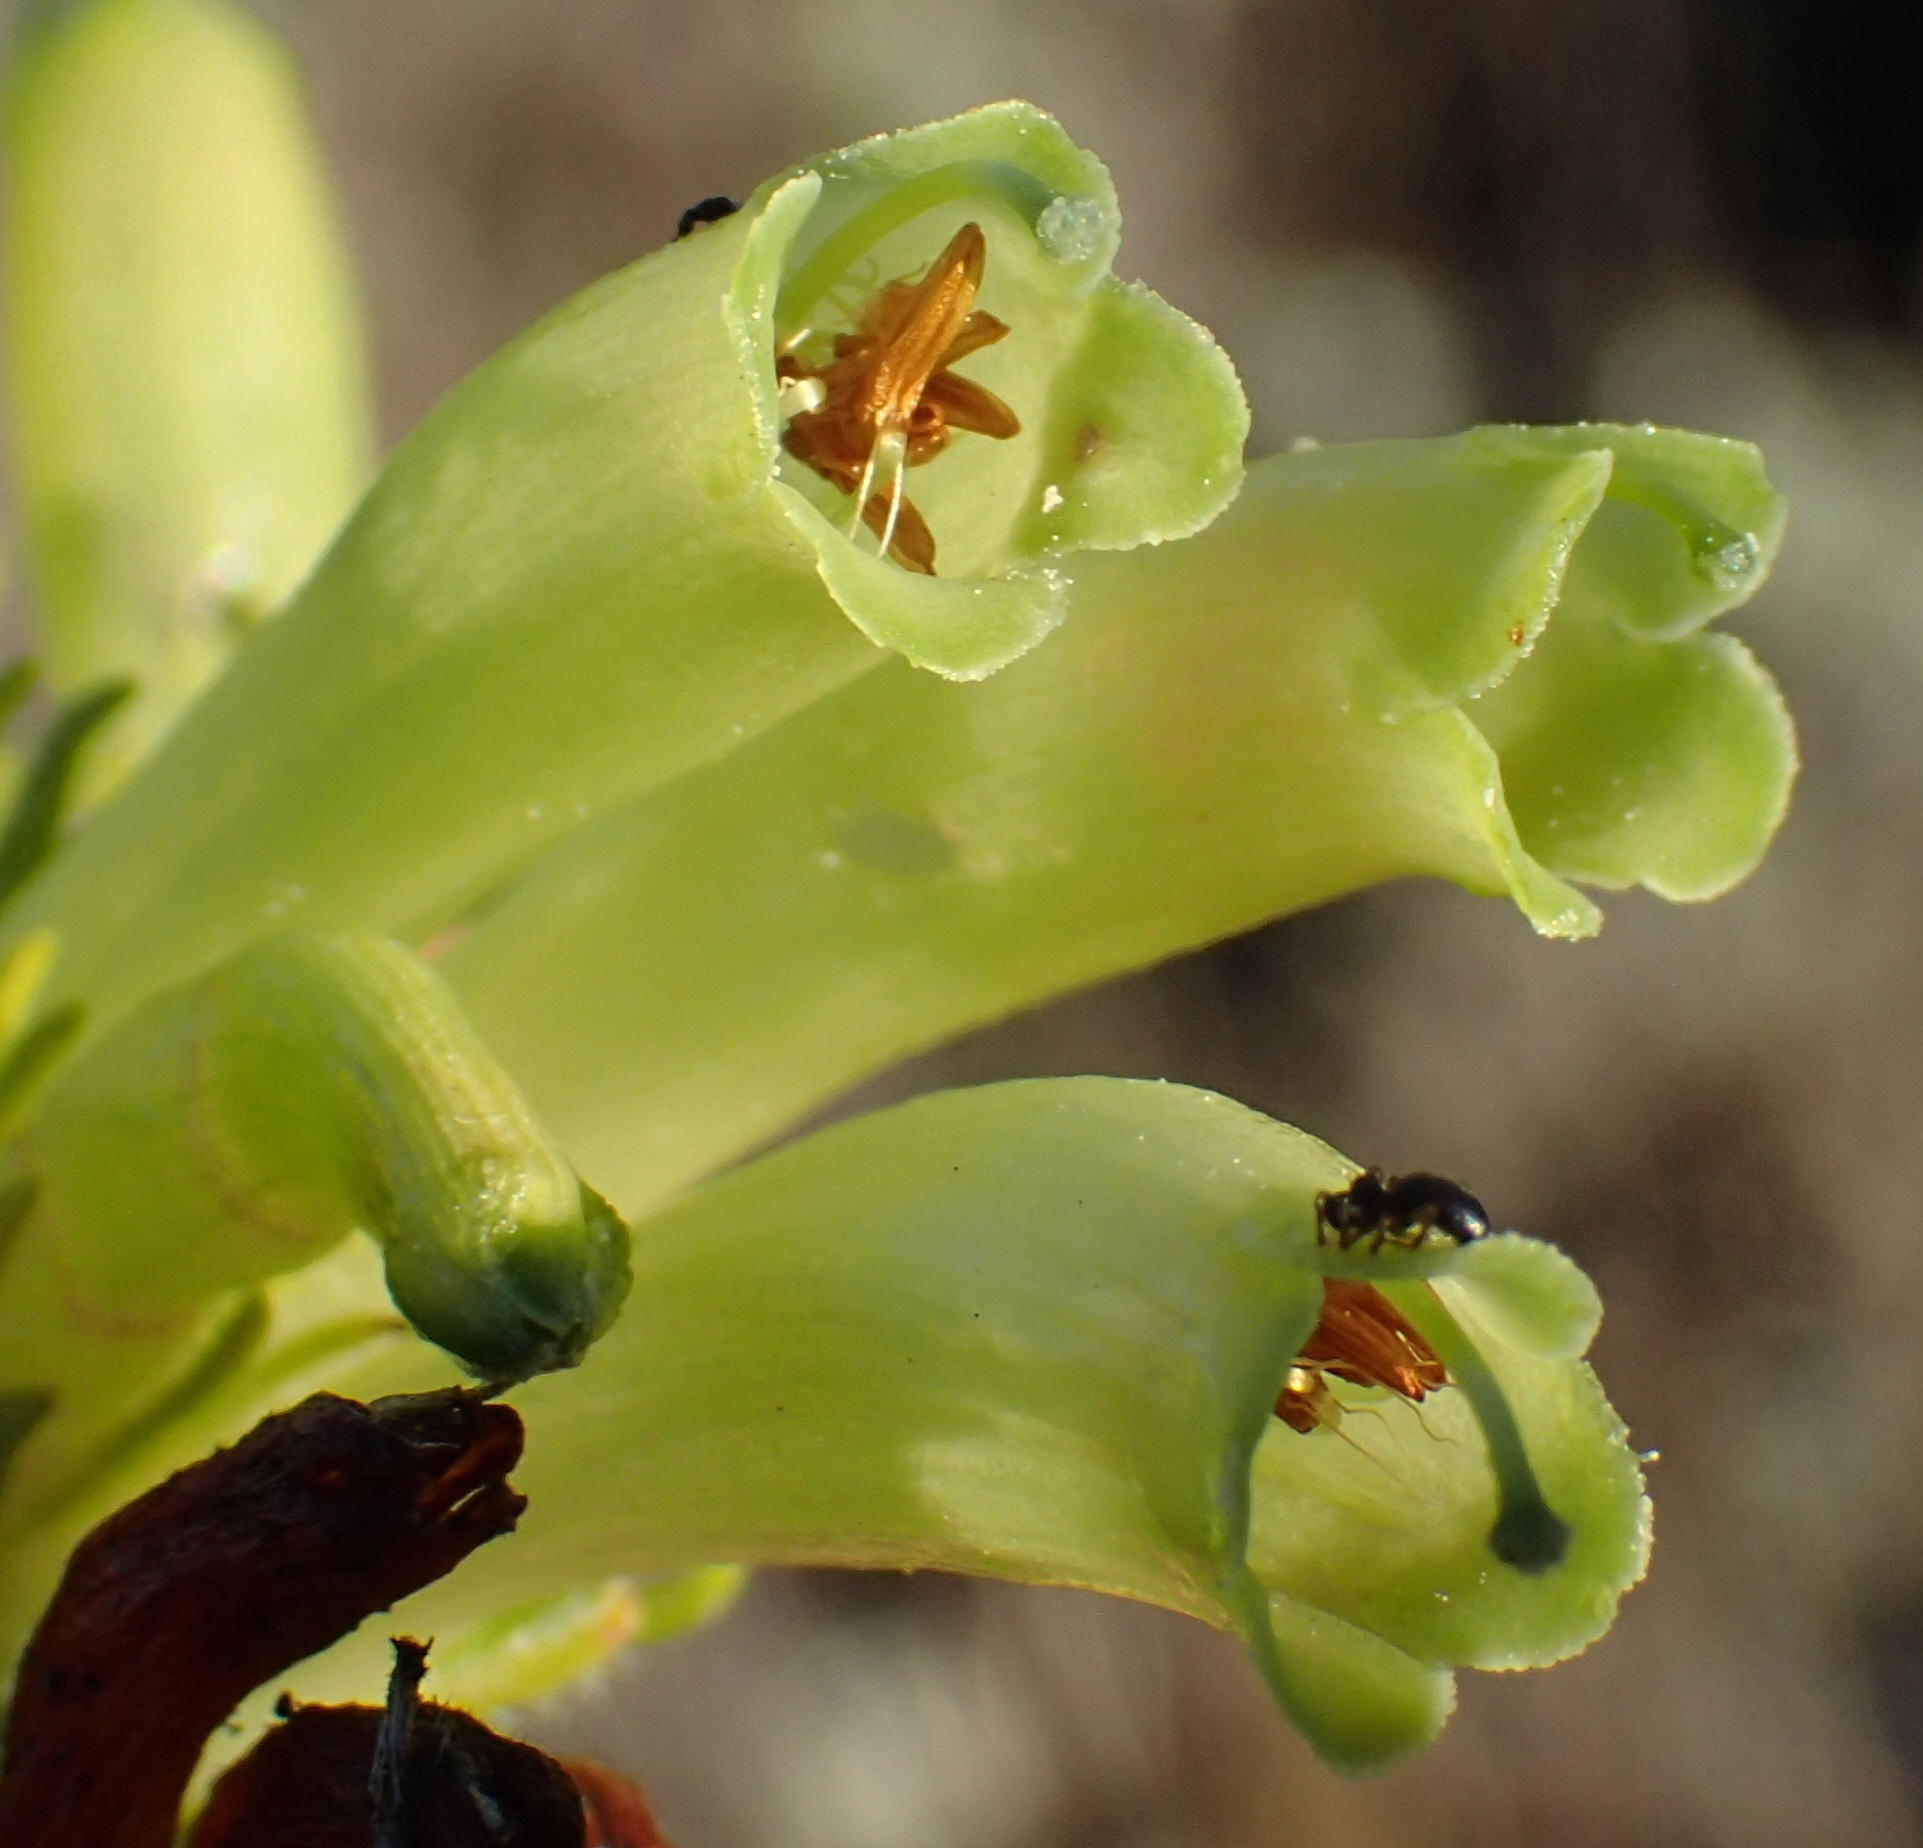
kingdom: Plantae
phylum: Tracheophyta
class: Magnoliopsida
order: Ericales
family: Ericaceae
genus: Erica
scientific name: Erica unicolor
